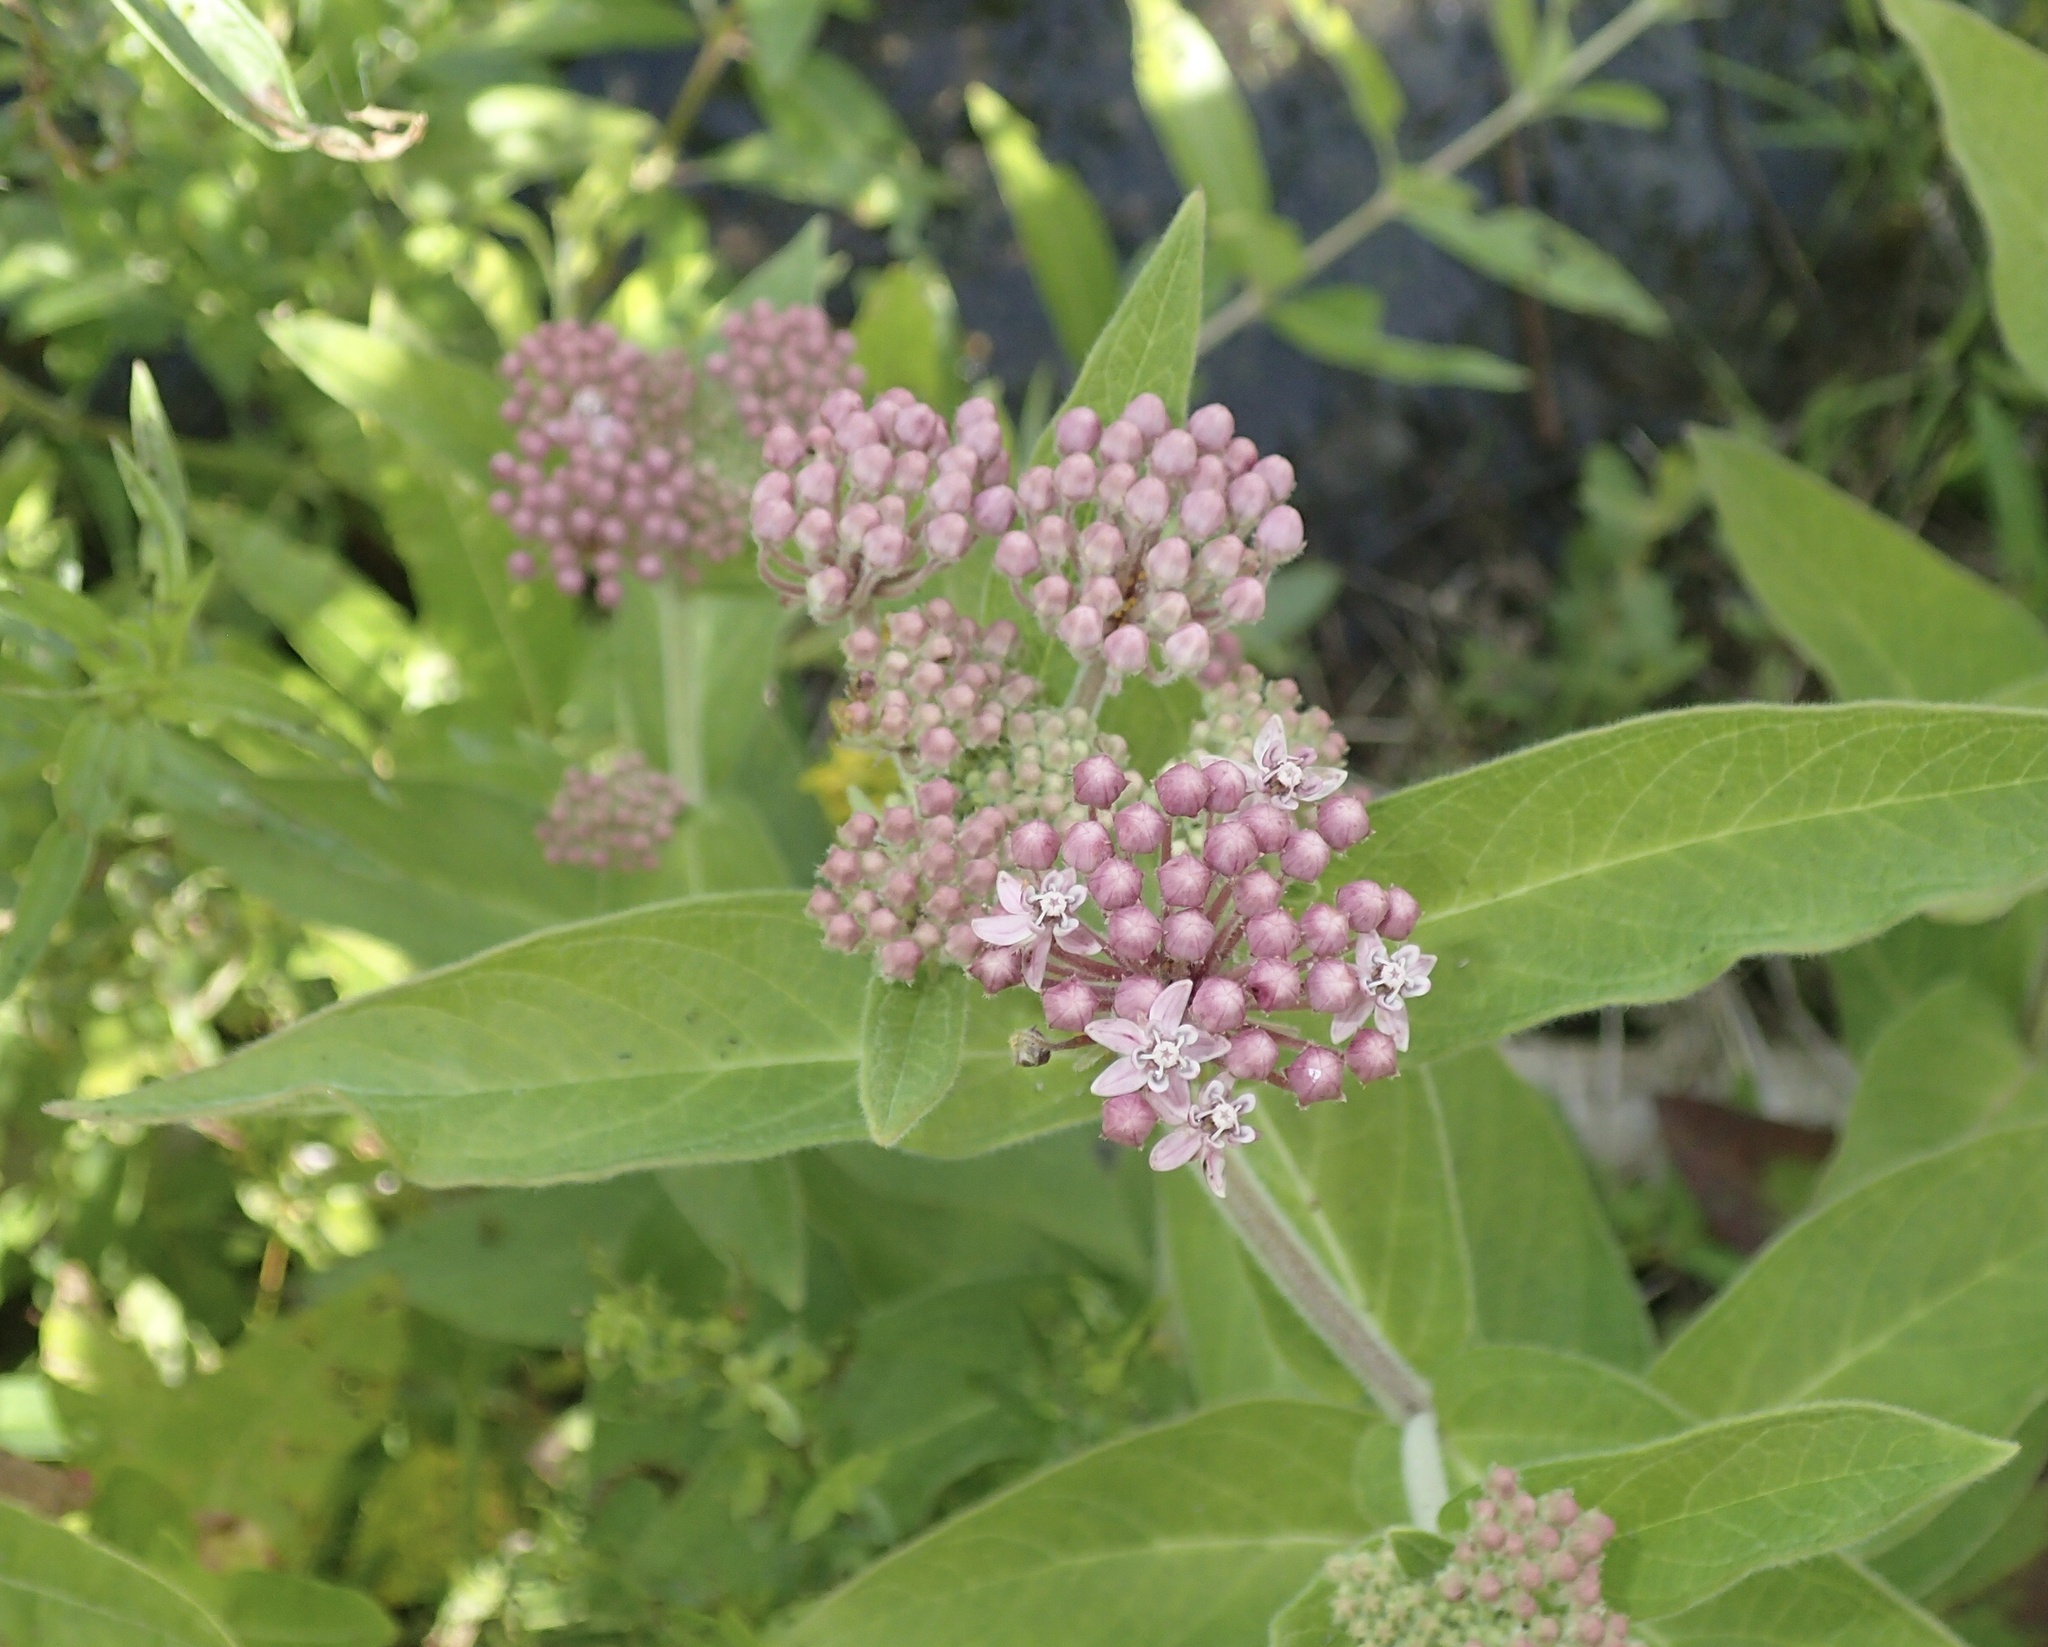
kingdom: Plantae
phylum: Tracheophyta
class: Magnoliopsida
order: Gentianales
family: Apocynaceae
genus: Asclepias
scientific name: Asclepias incarnata
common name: Swamp milkweed
